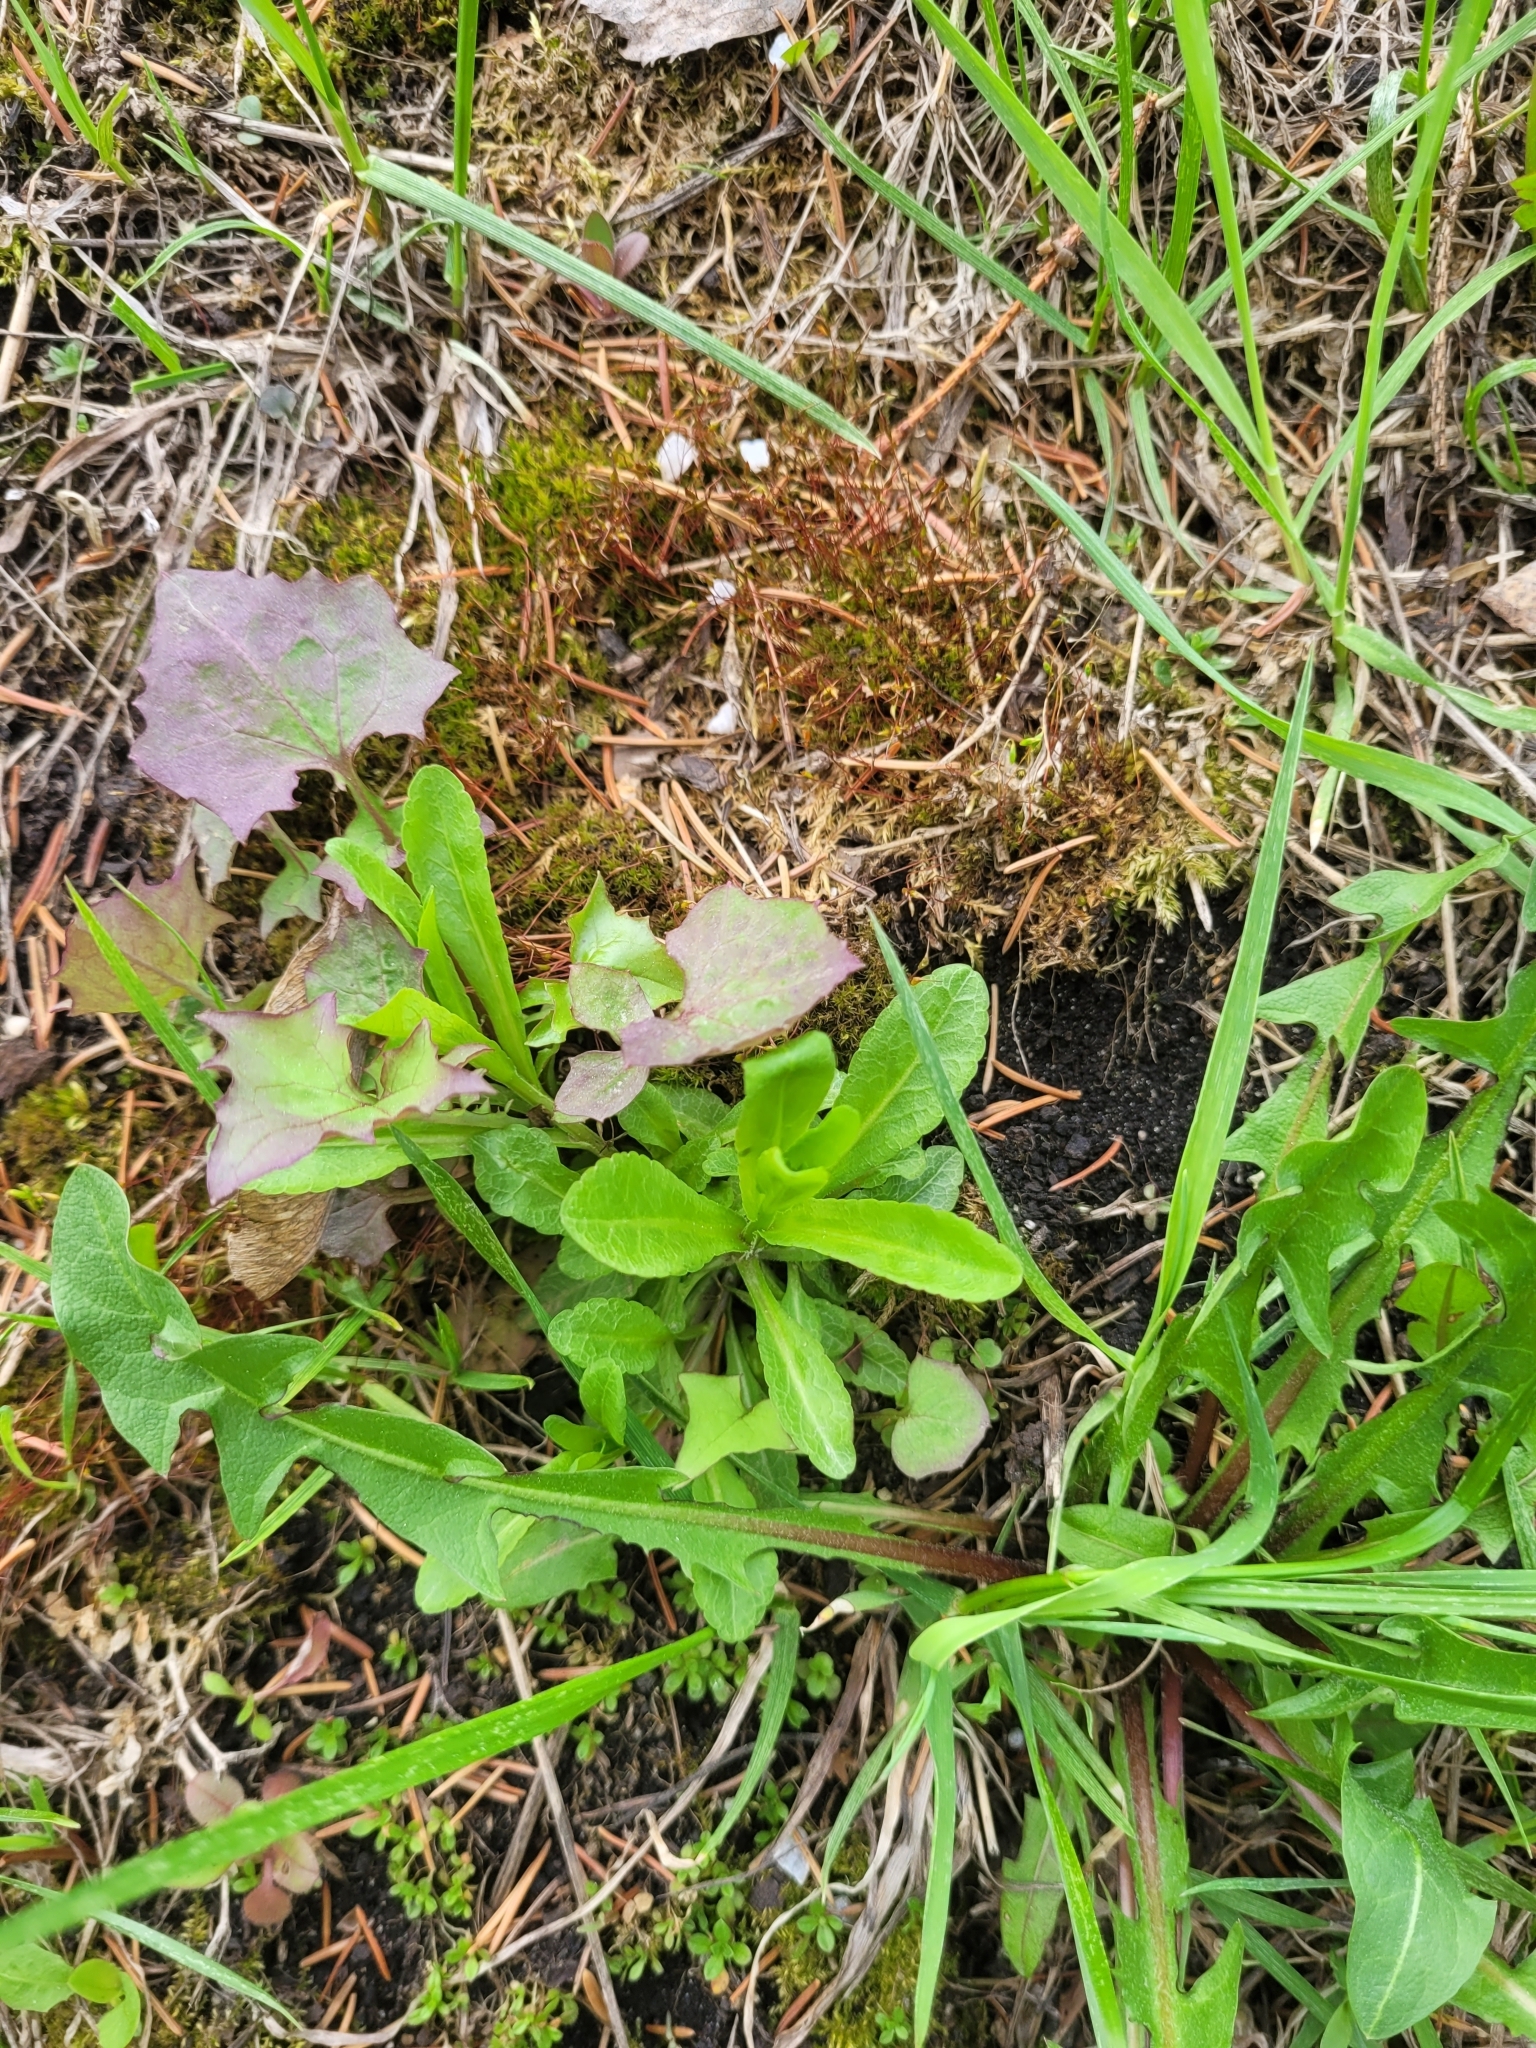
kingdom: Plantae
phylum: Tracheophyta
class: Magnoliopsida
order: Asterales
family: Campanulaceae
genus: Campanula
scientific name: Campanula patula
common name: Spreading bellflower
